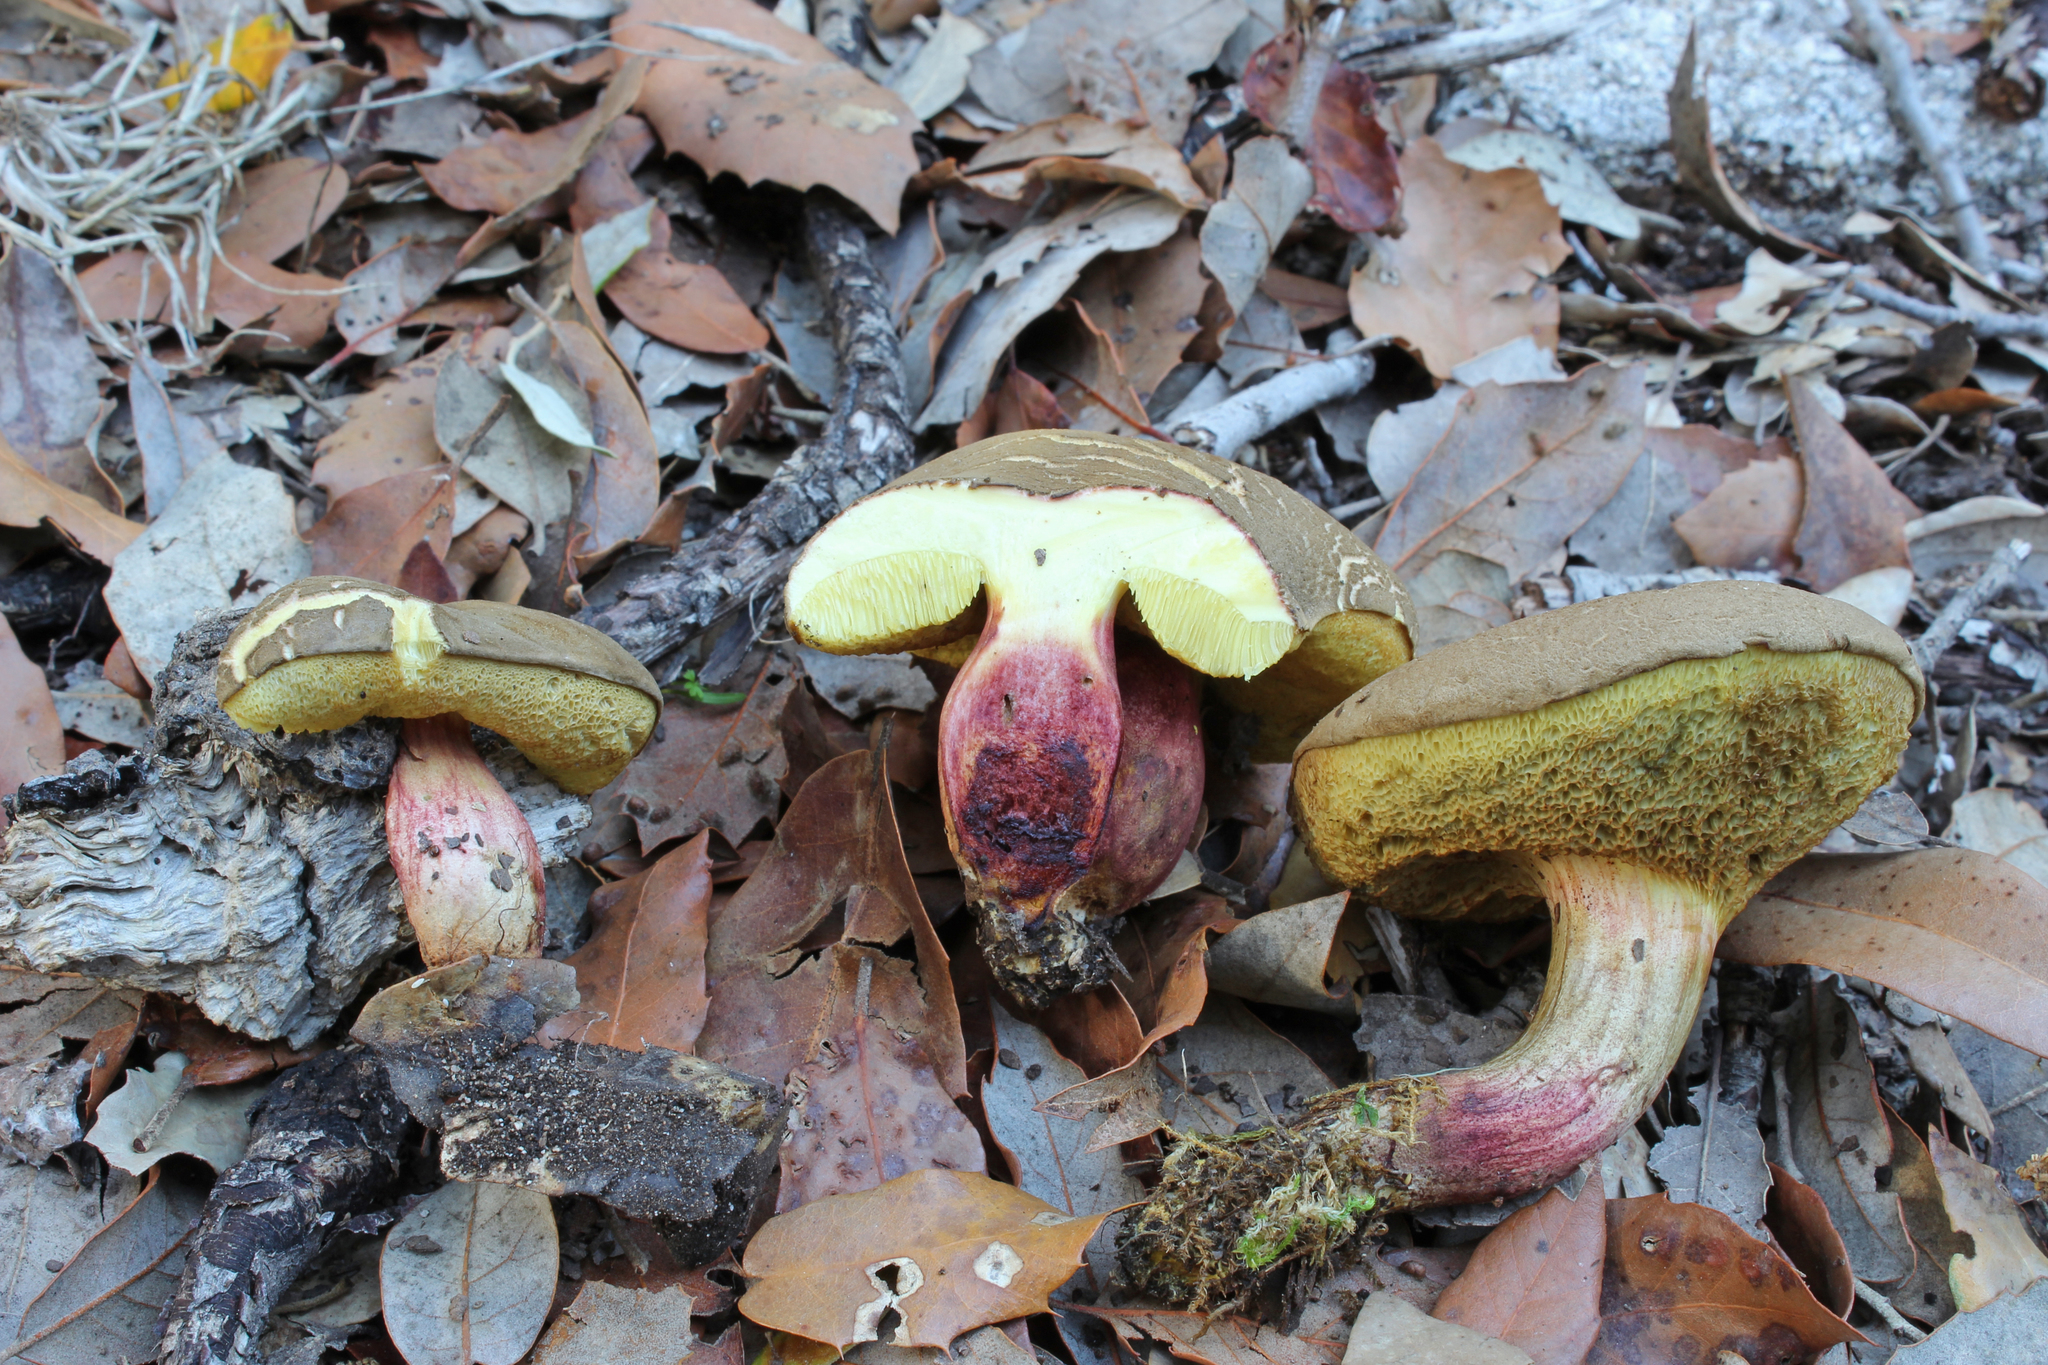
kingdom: Fungi
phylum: Basidiomycota
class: Agaricomycetes
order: Boletales
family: Boletaceae
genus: Xerocomellus
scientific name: Xerocomellus chrysenteron
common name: Red-cracking bolete
